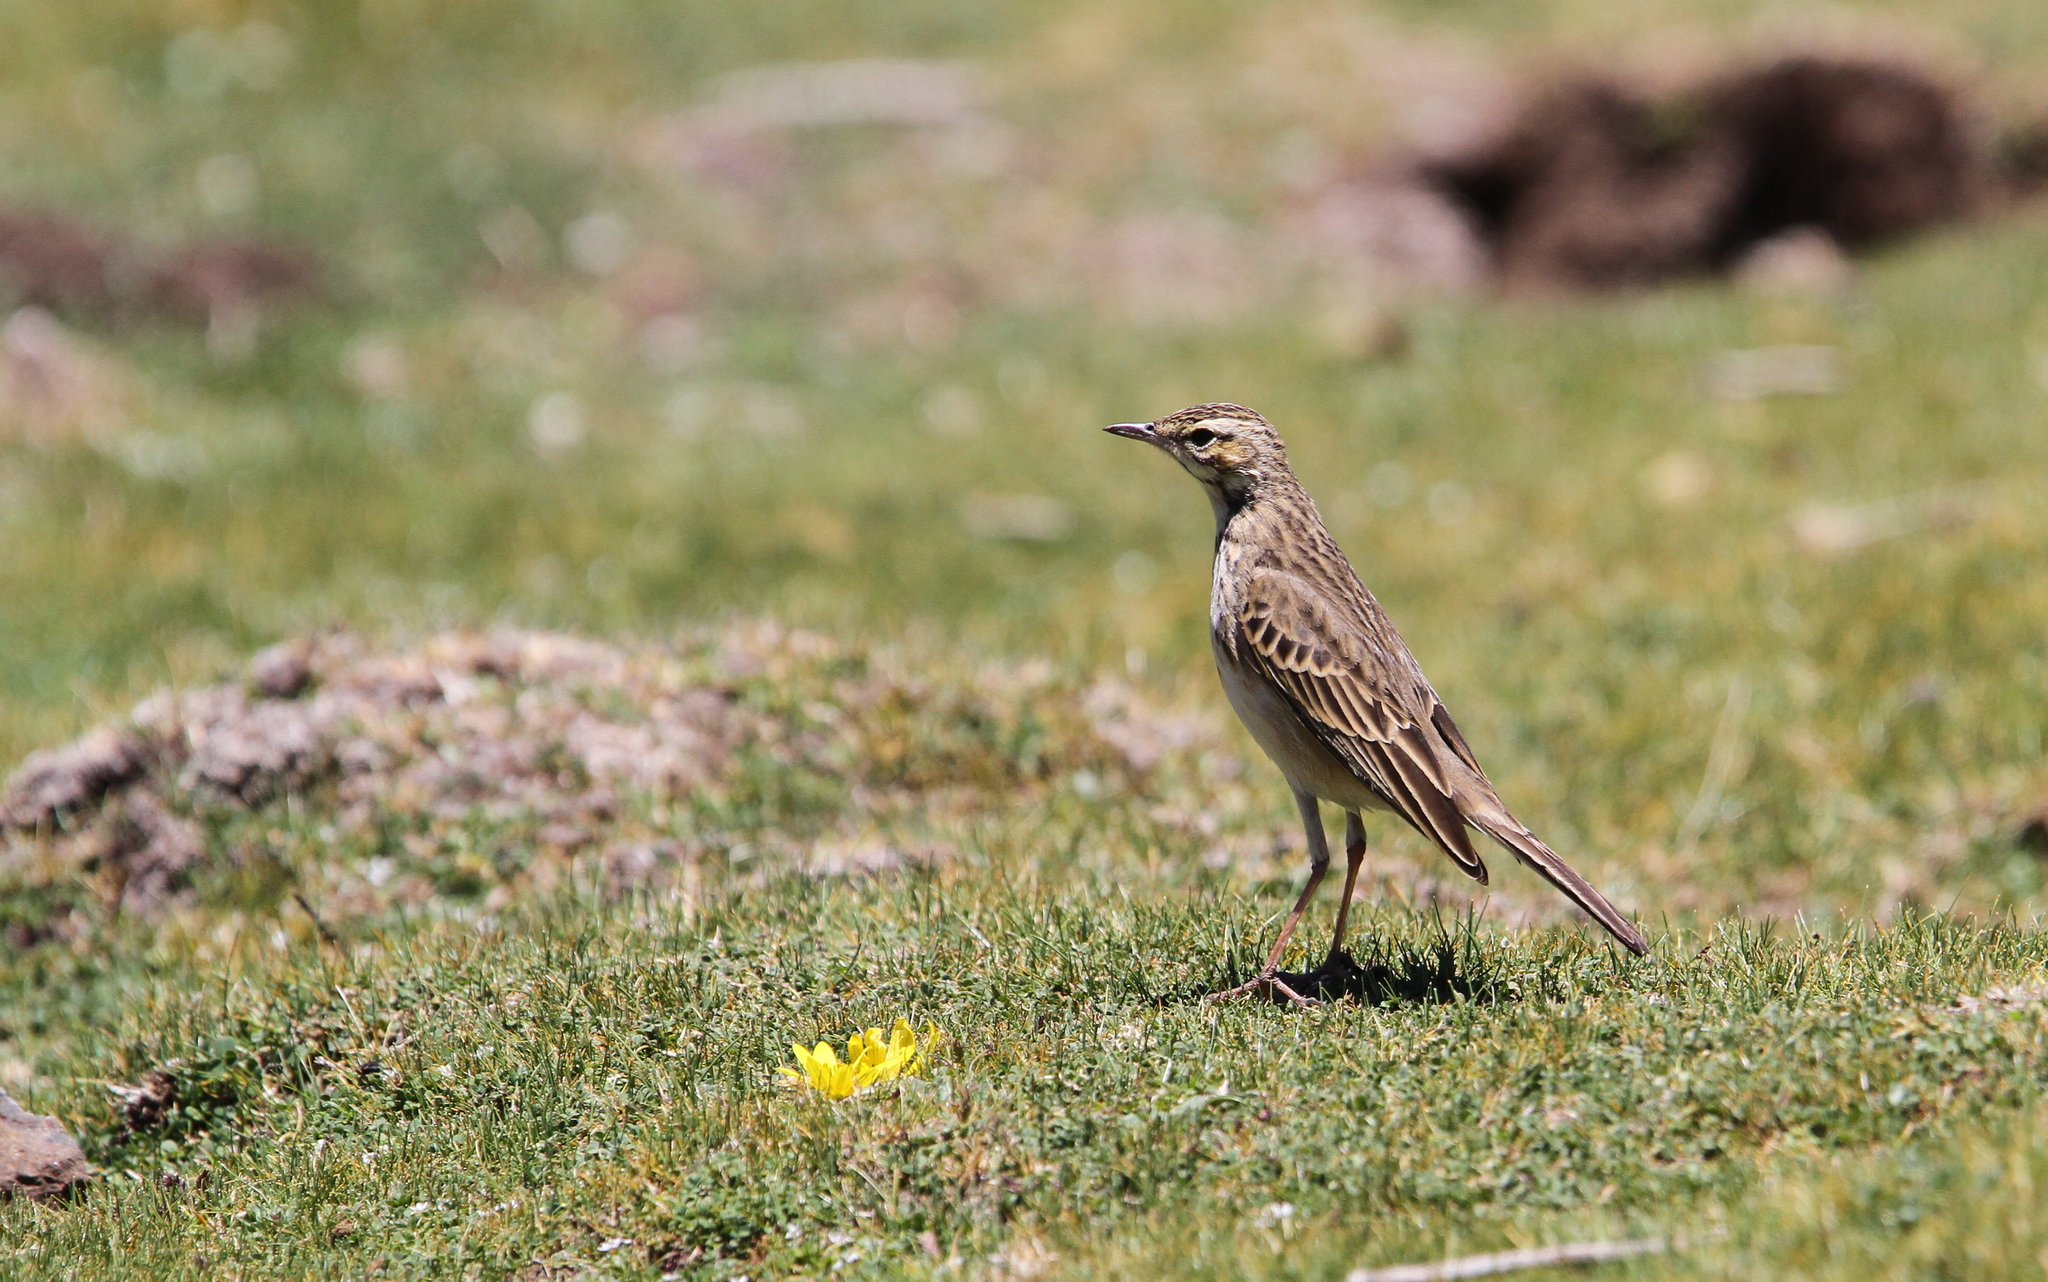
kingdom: Animalia
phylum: Chordata
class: Aves
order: Passeriformes
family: Motacillidae
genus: Anthus
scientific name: Anthus hoeschi
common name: Mountain pipit
